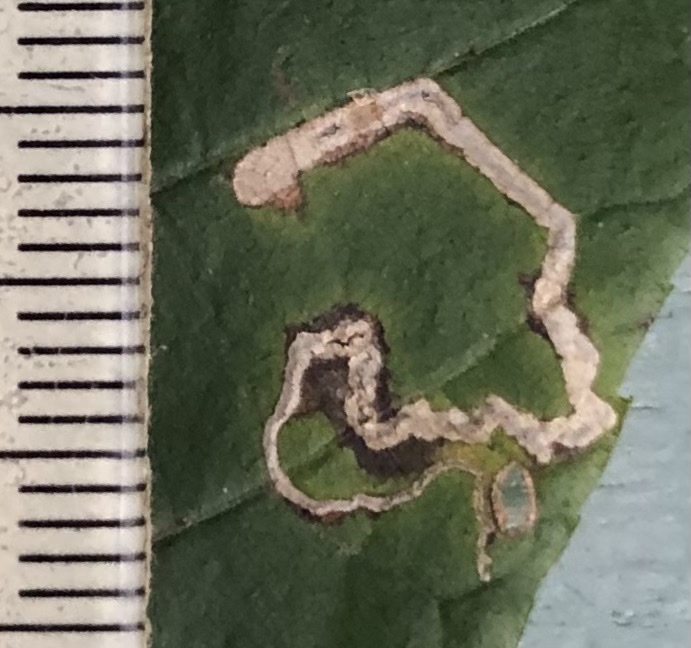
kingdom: Animalia
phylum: Arthropoda
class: Insecta
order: Lepidoptera
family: Nepticulidae
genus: Stigmella
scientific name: Stigmella caryaefoliella
